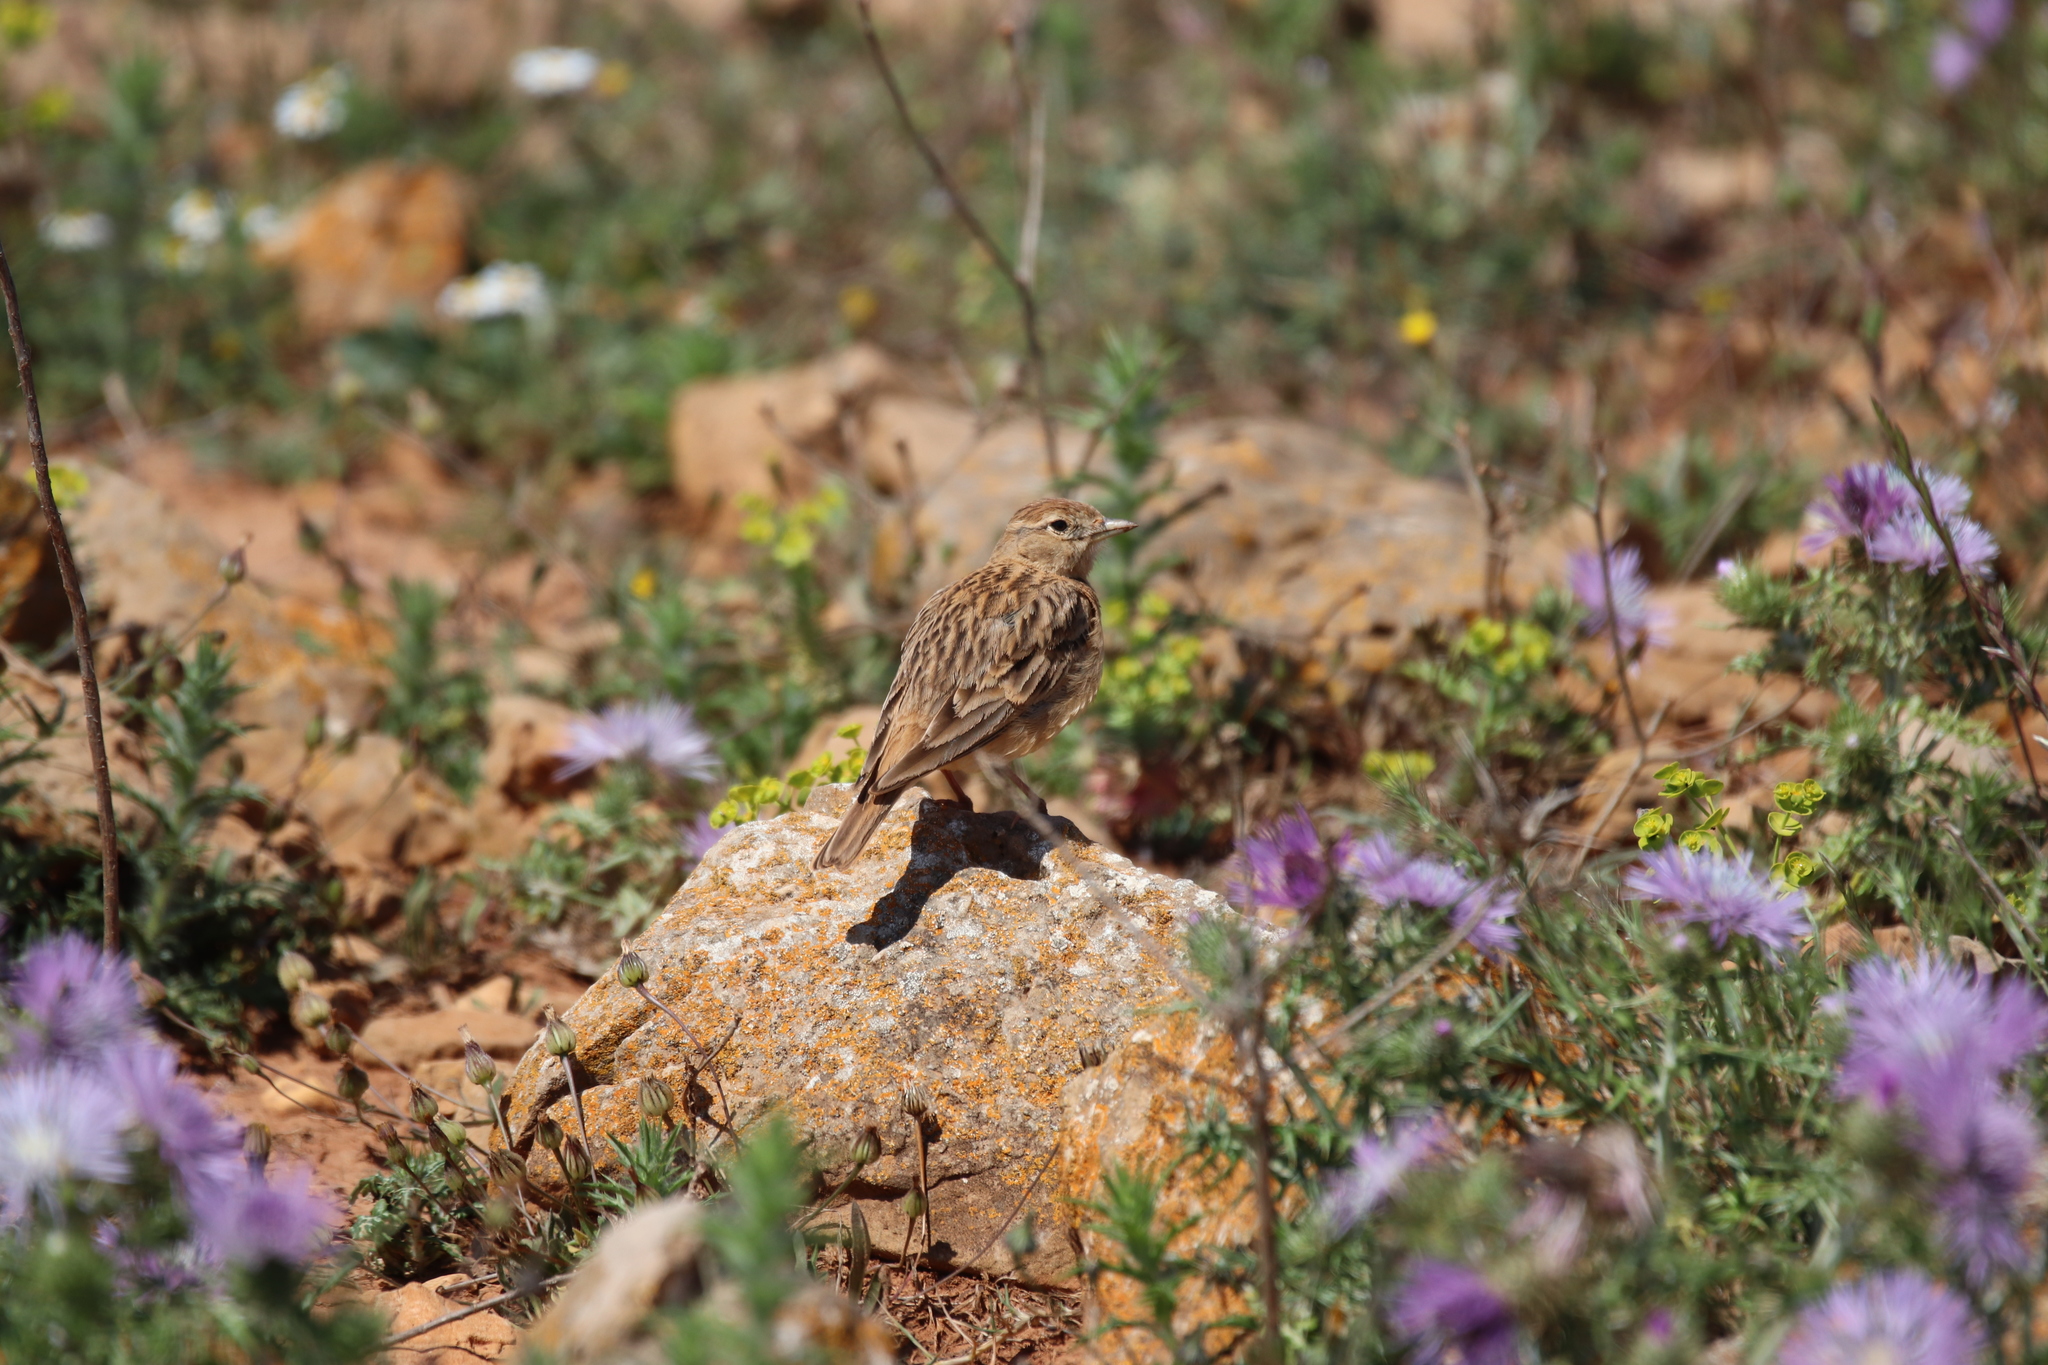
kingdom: Animalia
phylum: Chordata
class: Aves
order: Passeriformes
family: Alaudidae
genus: Calandrella
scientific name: Calandrella brachydactyla
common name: Greater short-toed lark
